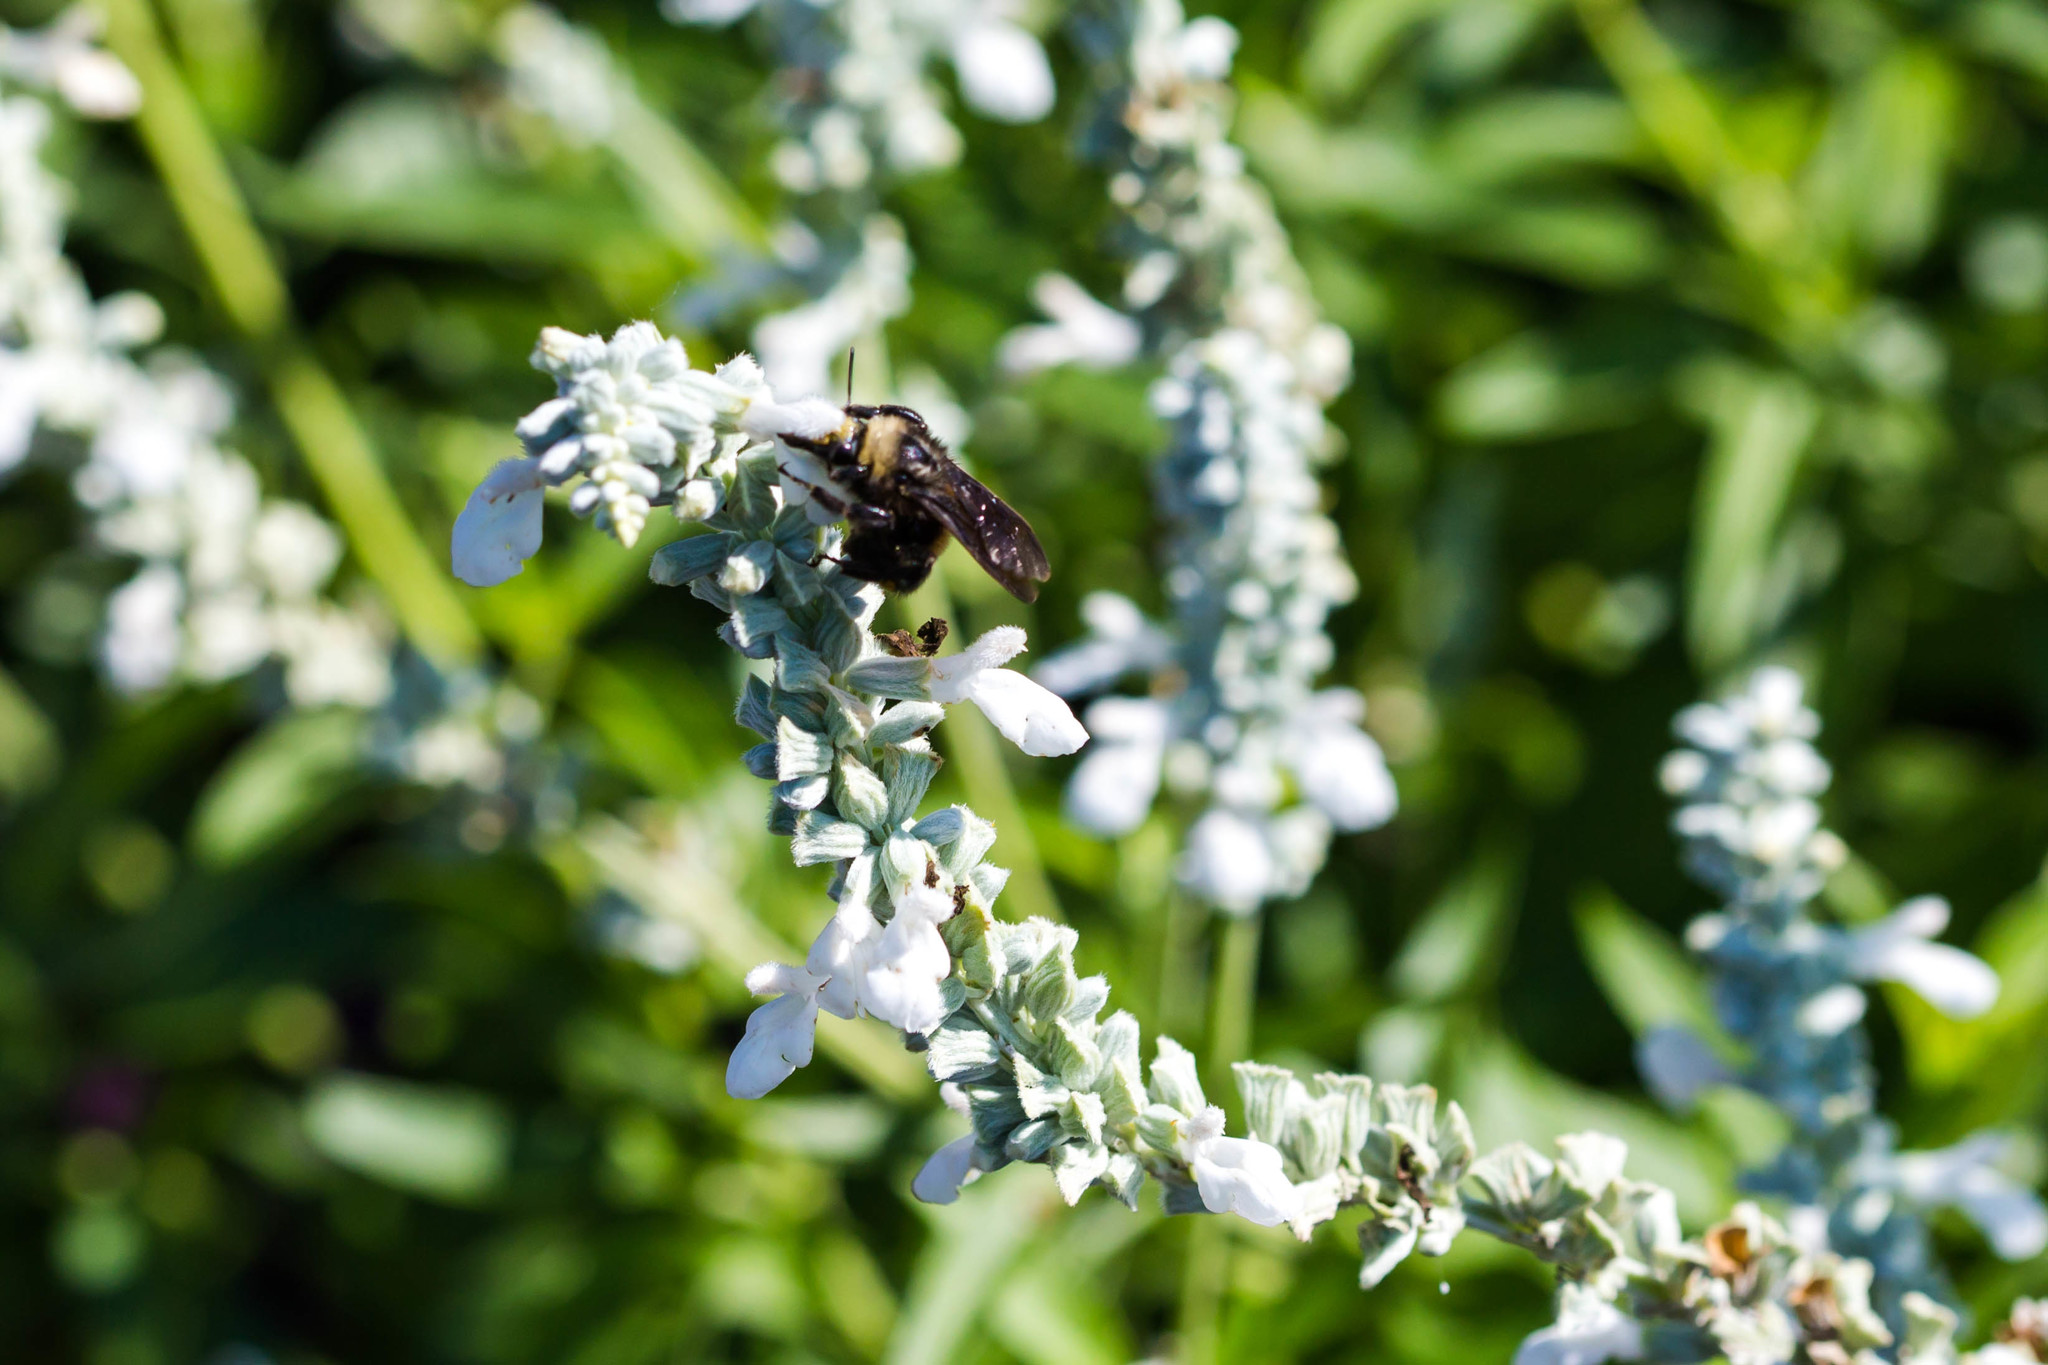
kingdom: Animalia
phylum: Arthropoda
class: Insecta
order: Hymenoptera
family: Apidae
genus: Bombus
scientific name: Bombus pensylvanicus
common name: Bumble bee
